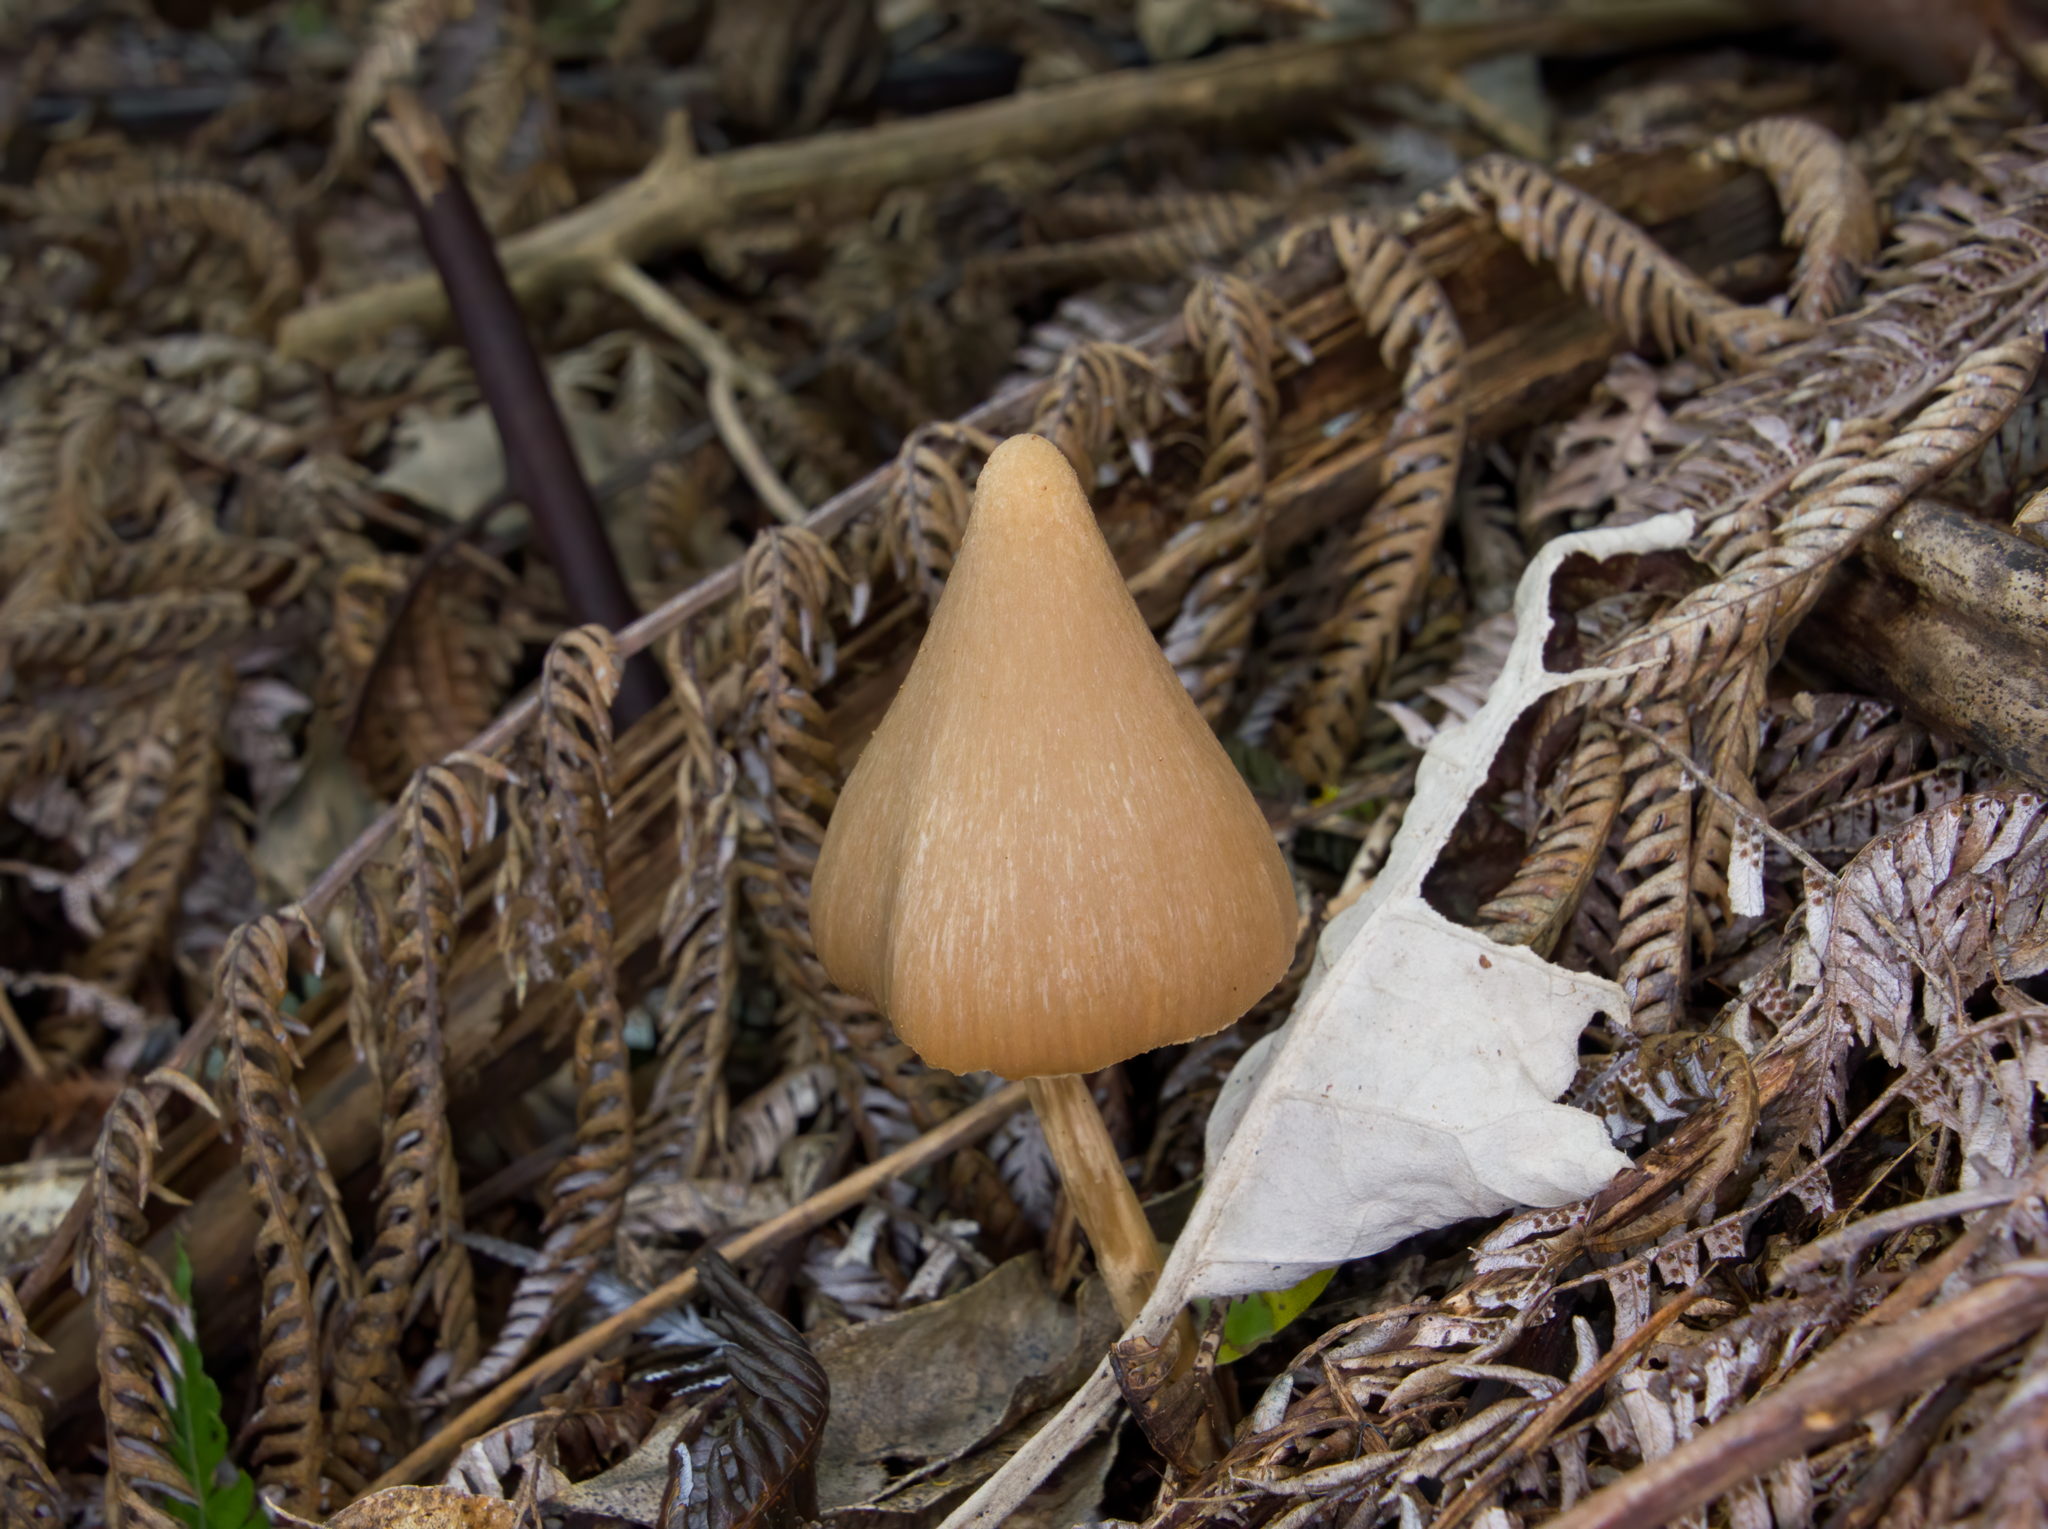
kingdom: Fungi
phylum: Basidiomycota
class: Agaricomycetes
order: Agaricales
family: Entolomataceae
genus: Entoloma
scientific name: Entoloma latericolor
